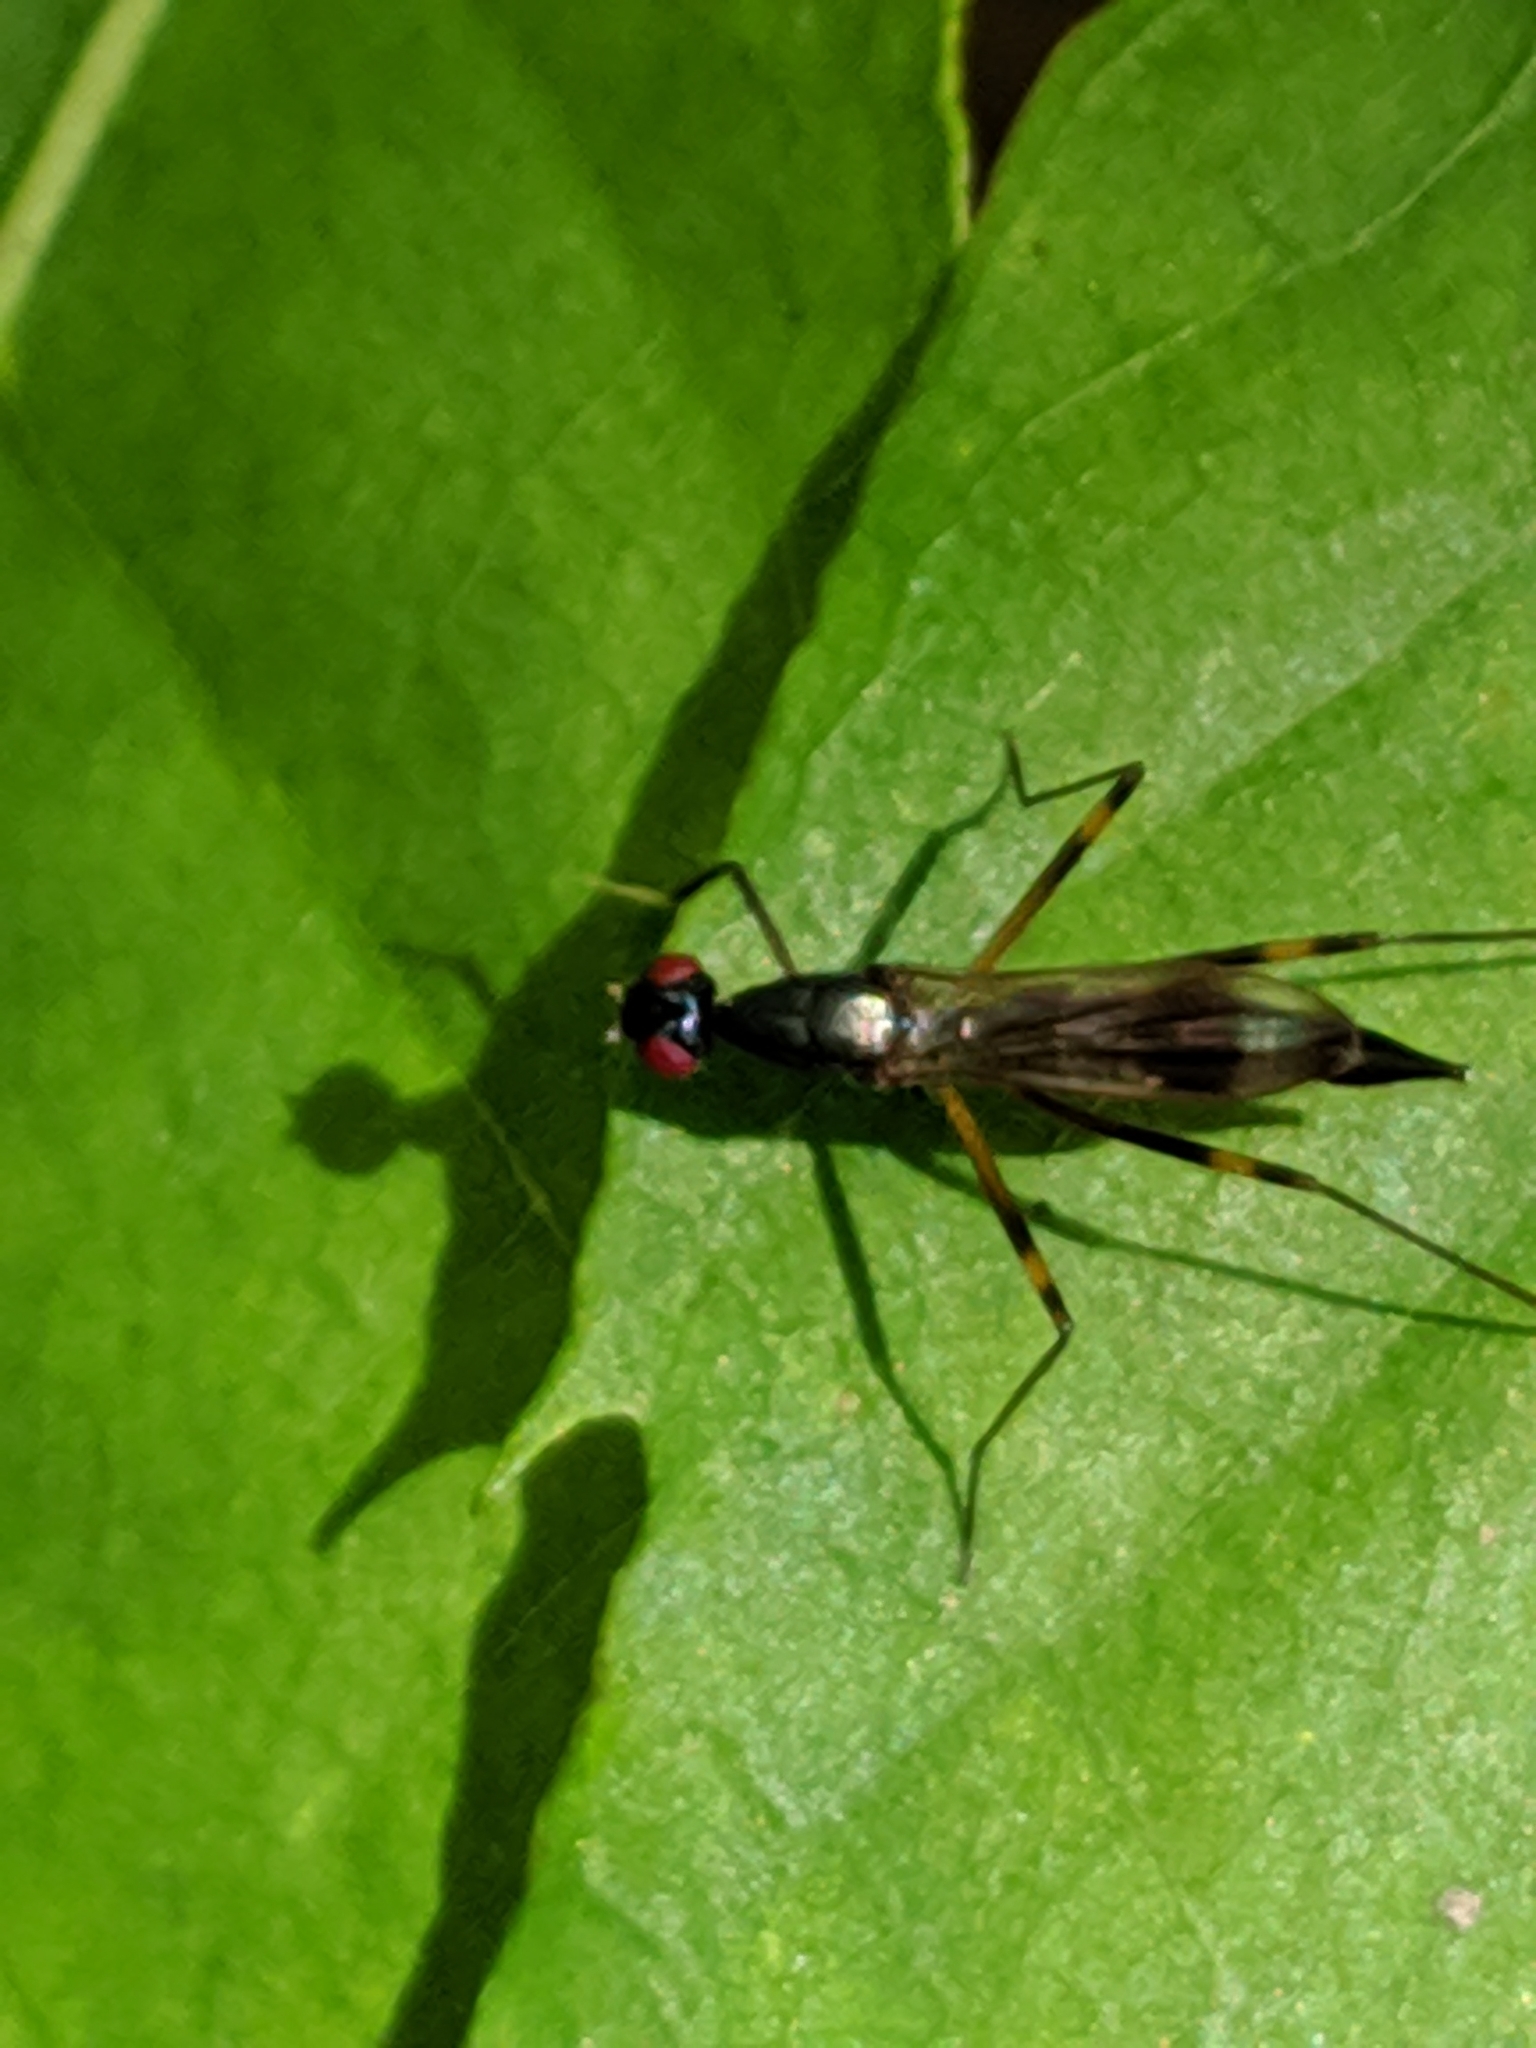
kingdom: Animalia
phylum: Arthropoda
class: Insecta
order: Diptera
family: Micropezidae
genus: Rainieria
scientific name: Rainieria antennaepes
